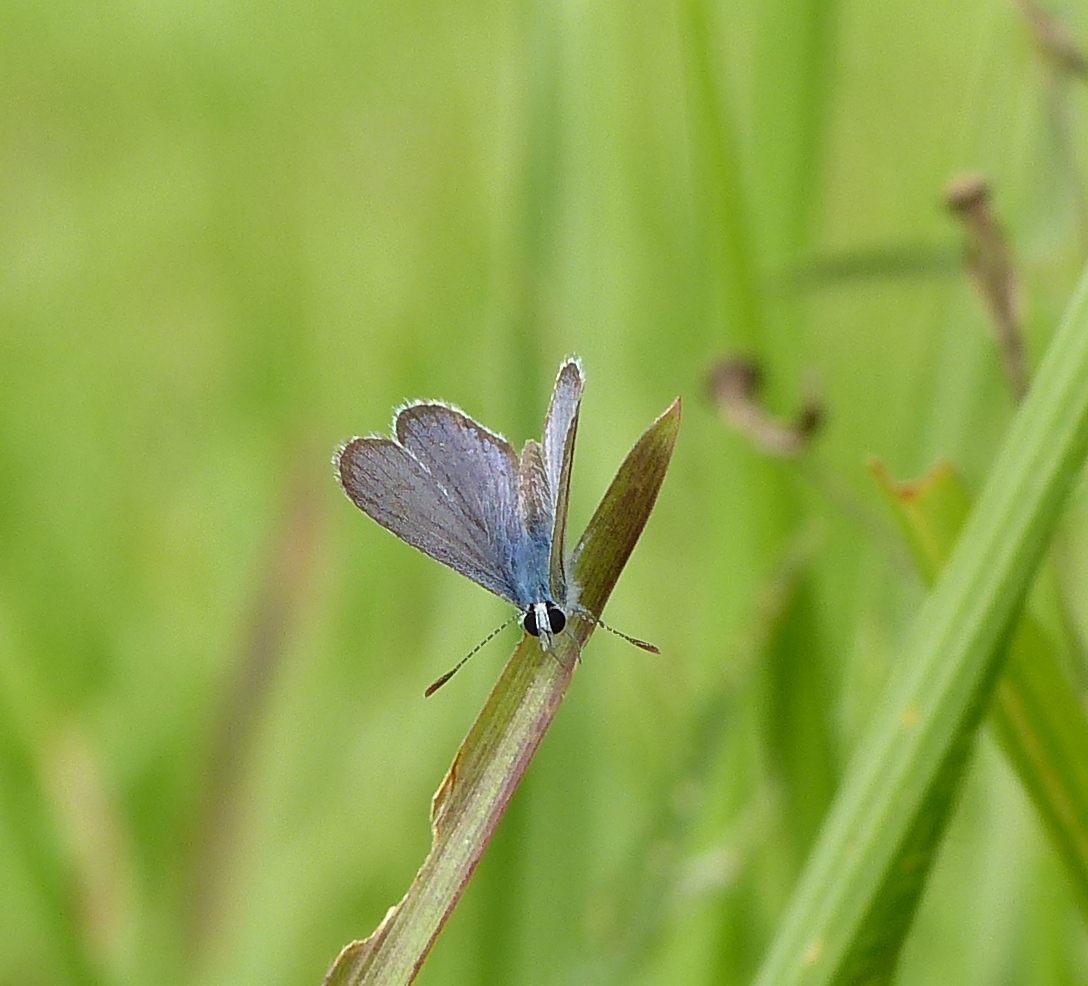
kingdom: Animalia
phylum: Arthropoda
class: Insecta
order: Lepidoptera
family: Lycaenidae
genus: Hemiargus
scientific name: Hemiargus hanno
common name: Common blue
